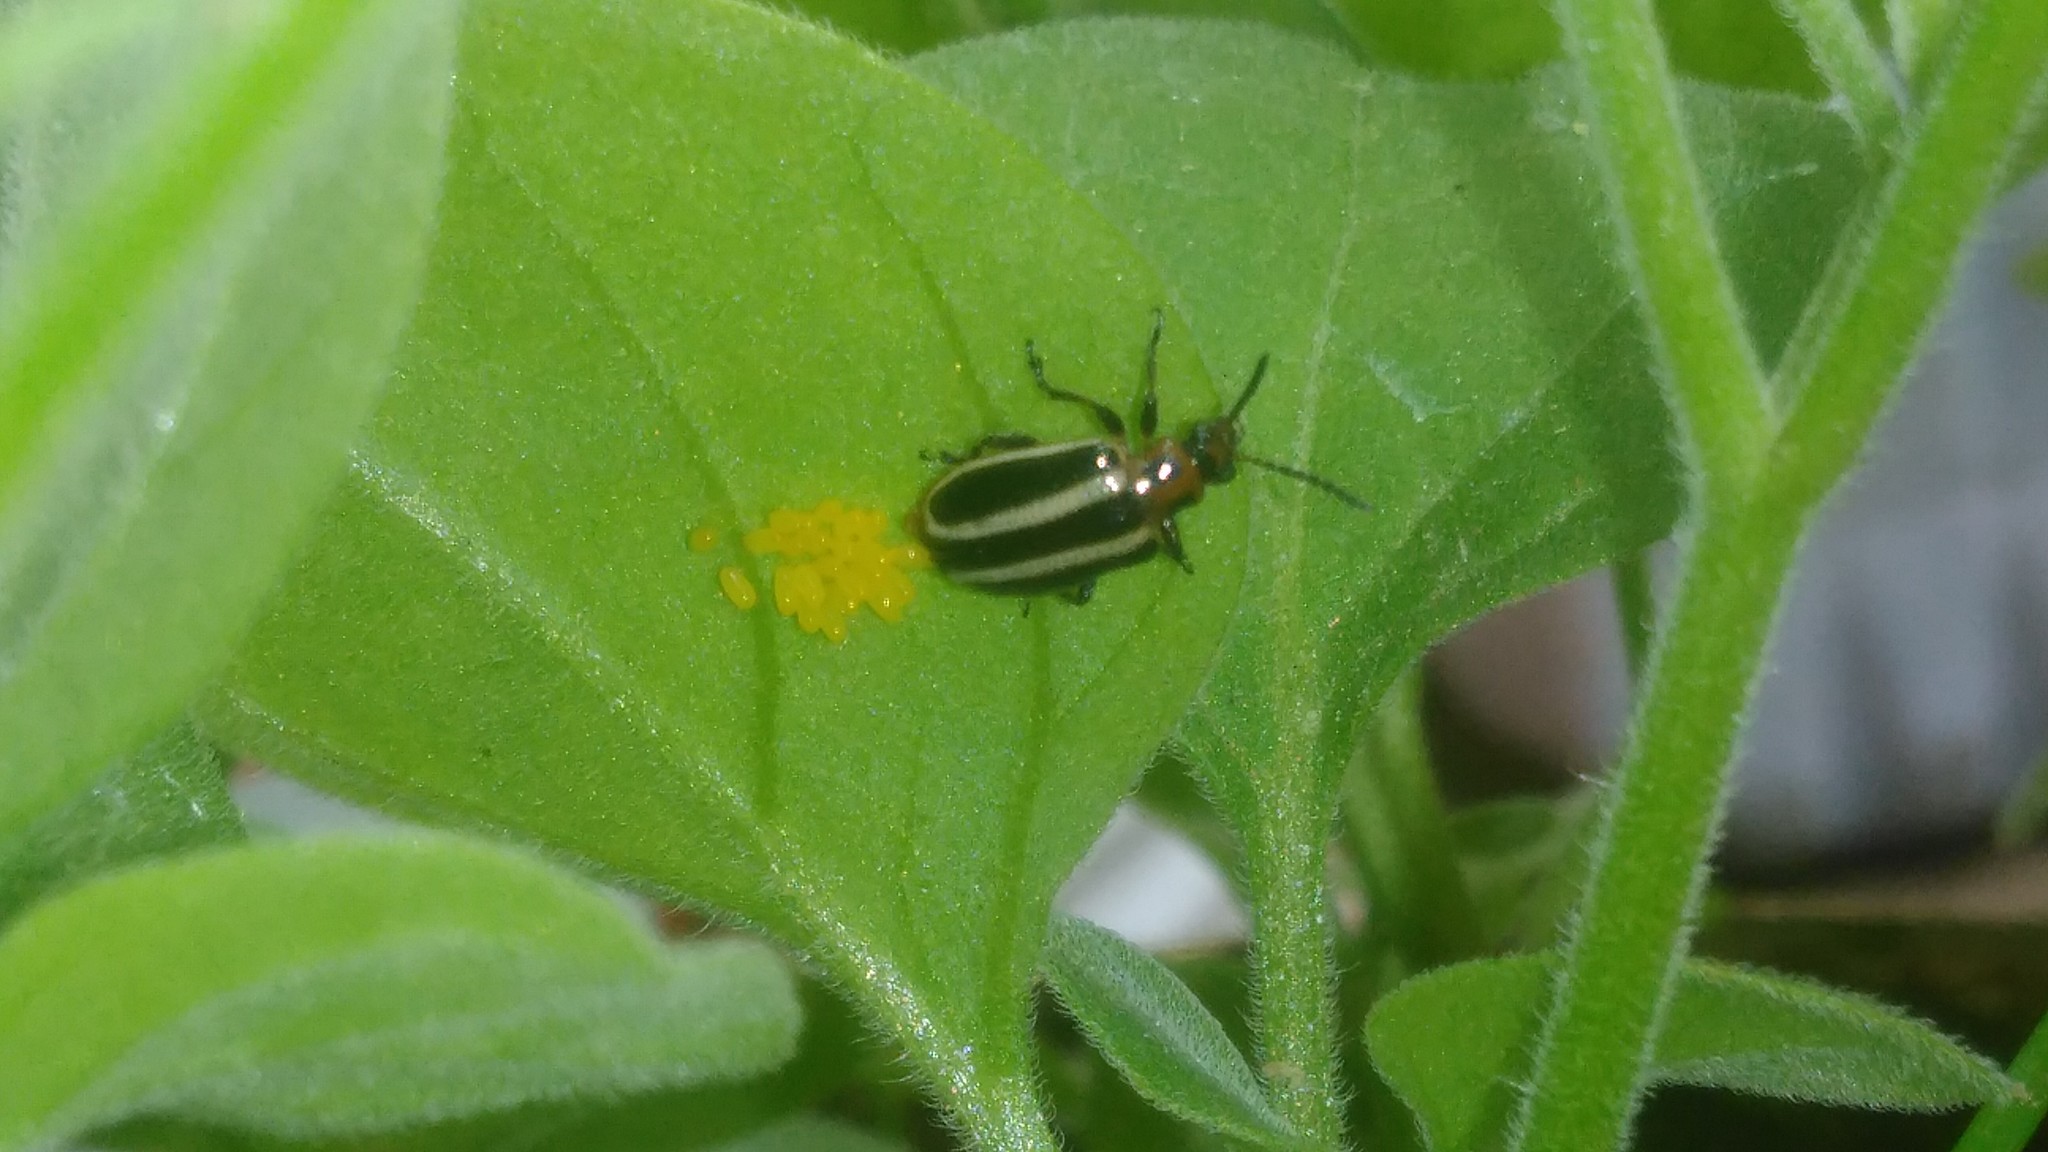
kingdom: Animalia
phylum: Arthropoda
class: Insecta
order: Coleoptera
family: Chrysomelidae
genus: Lema
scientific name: Lema bilineata
